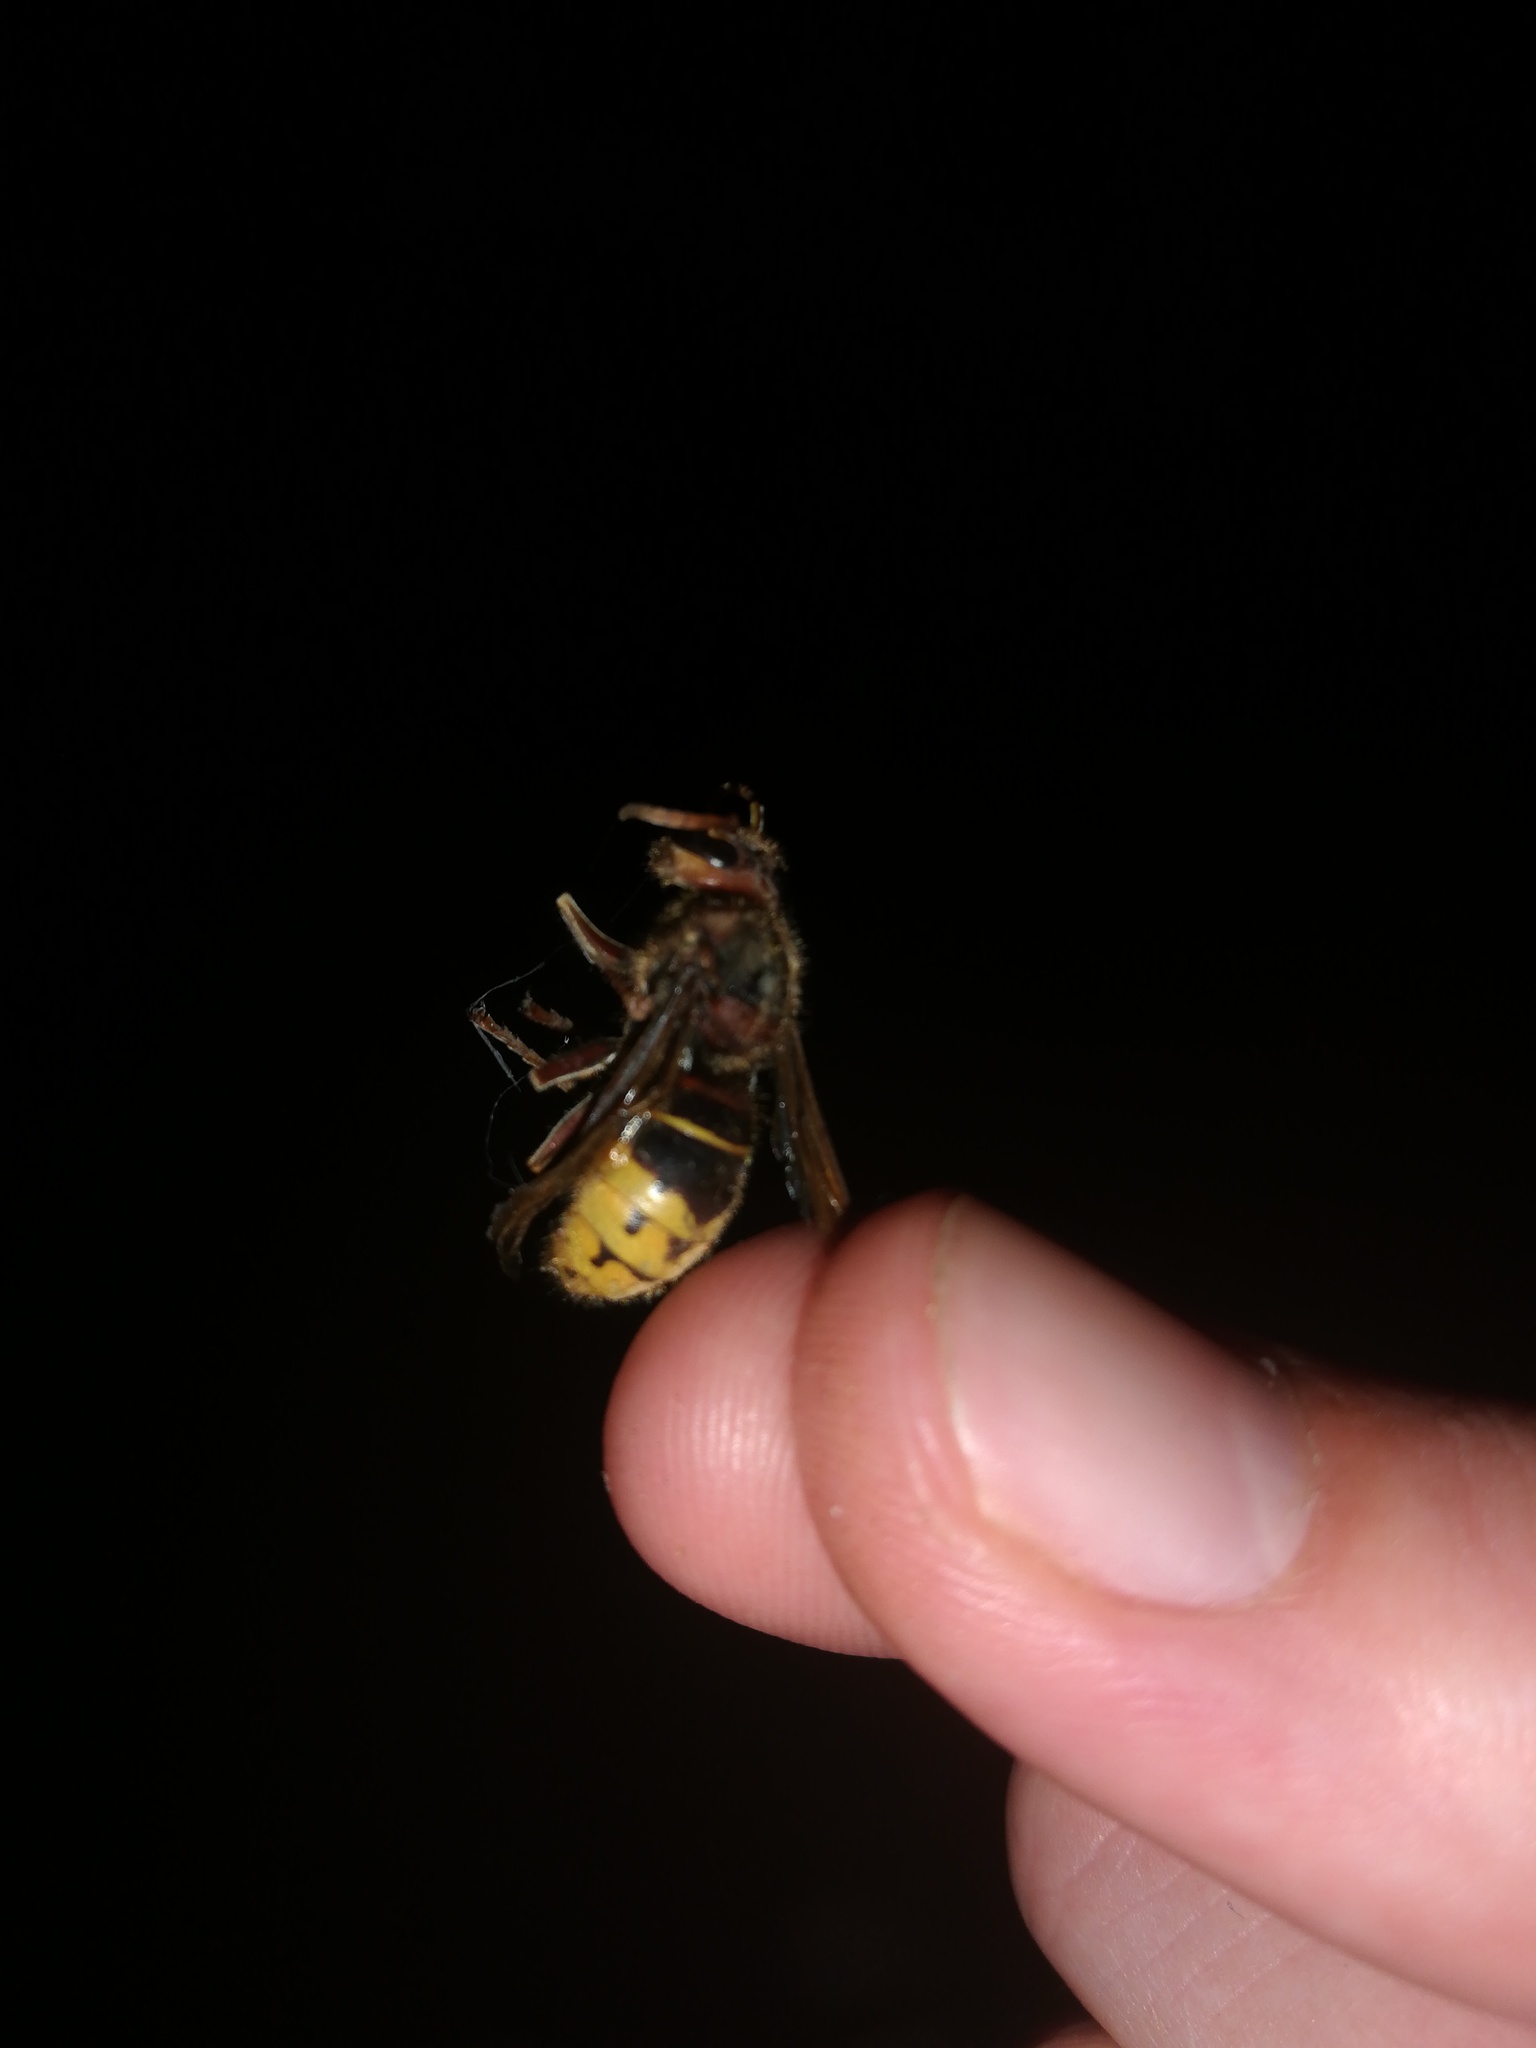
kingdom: Animalia
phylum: Arthropoda
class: Insecta
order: Hymenoptera
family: Vespidae
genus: Vespa
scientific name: Vespa crabro
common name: Hornet
